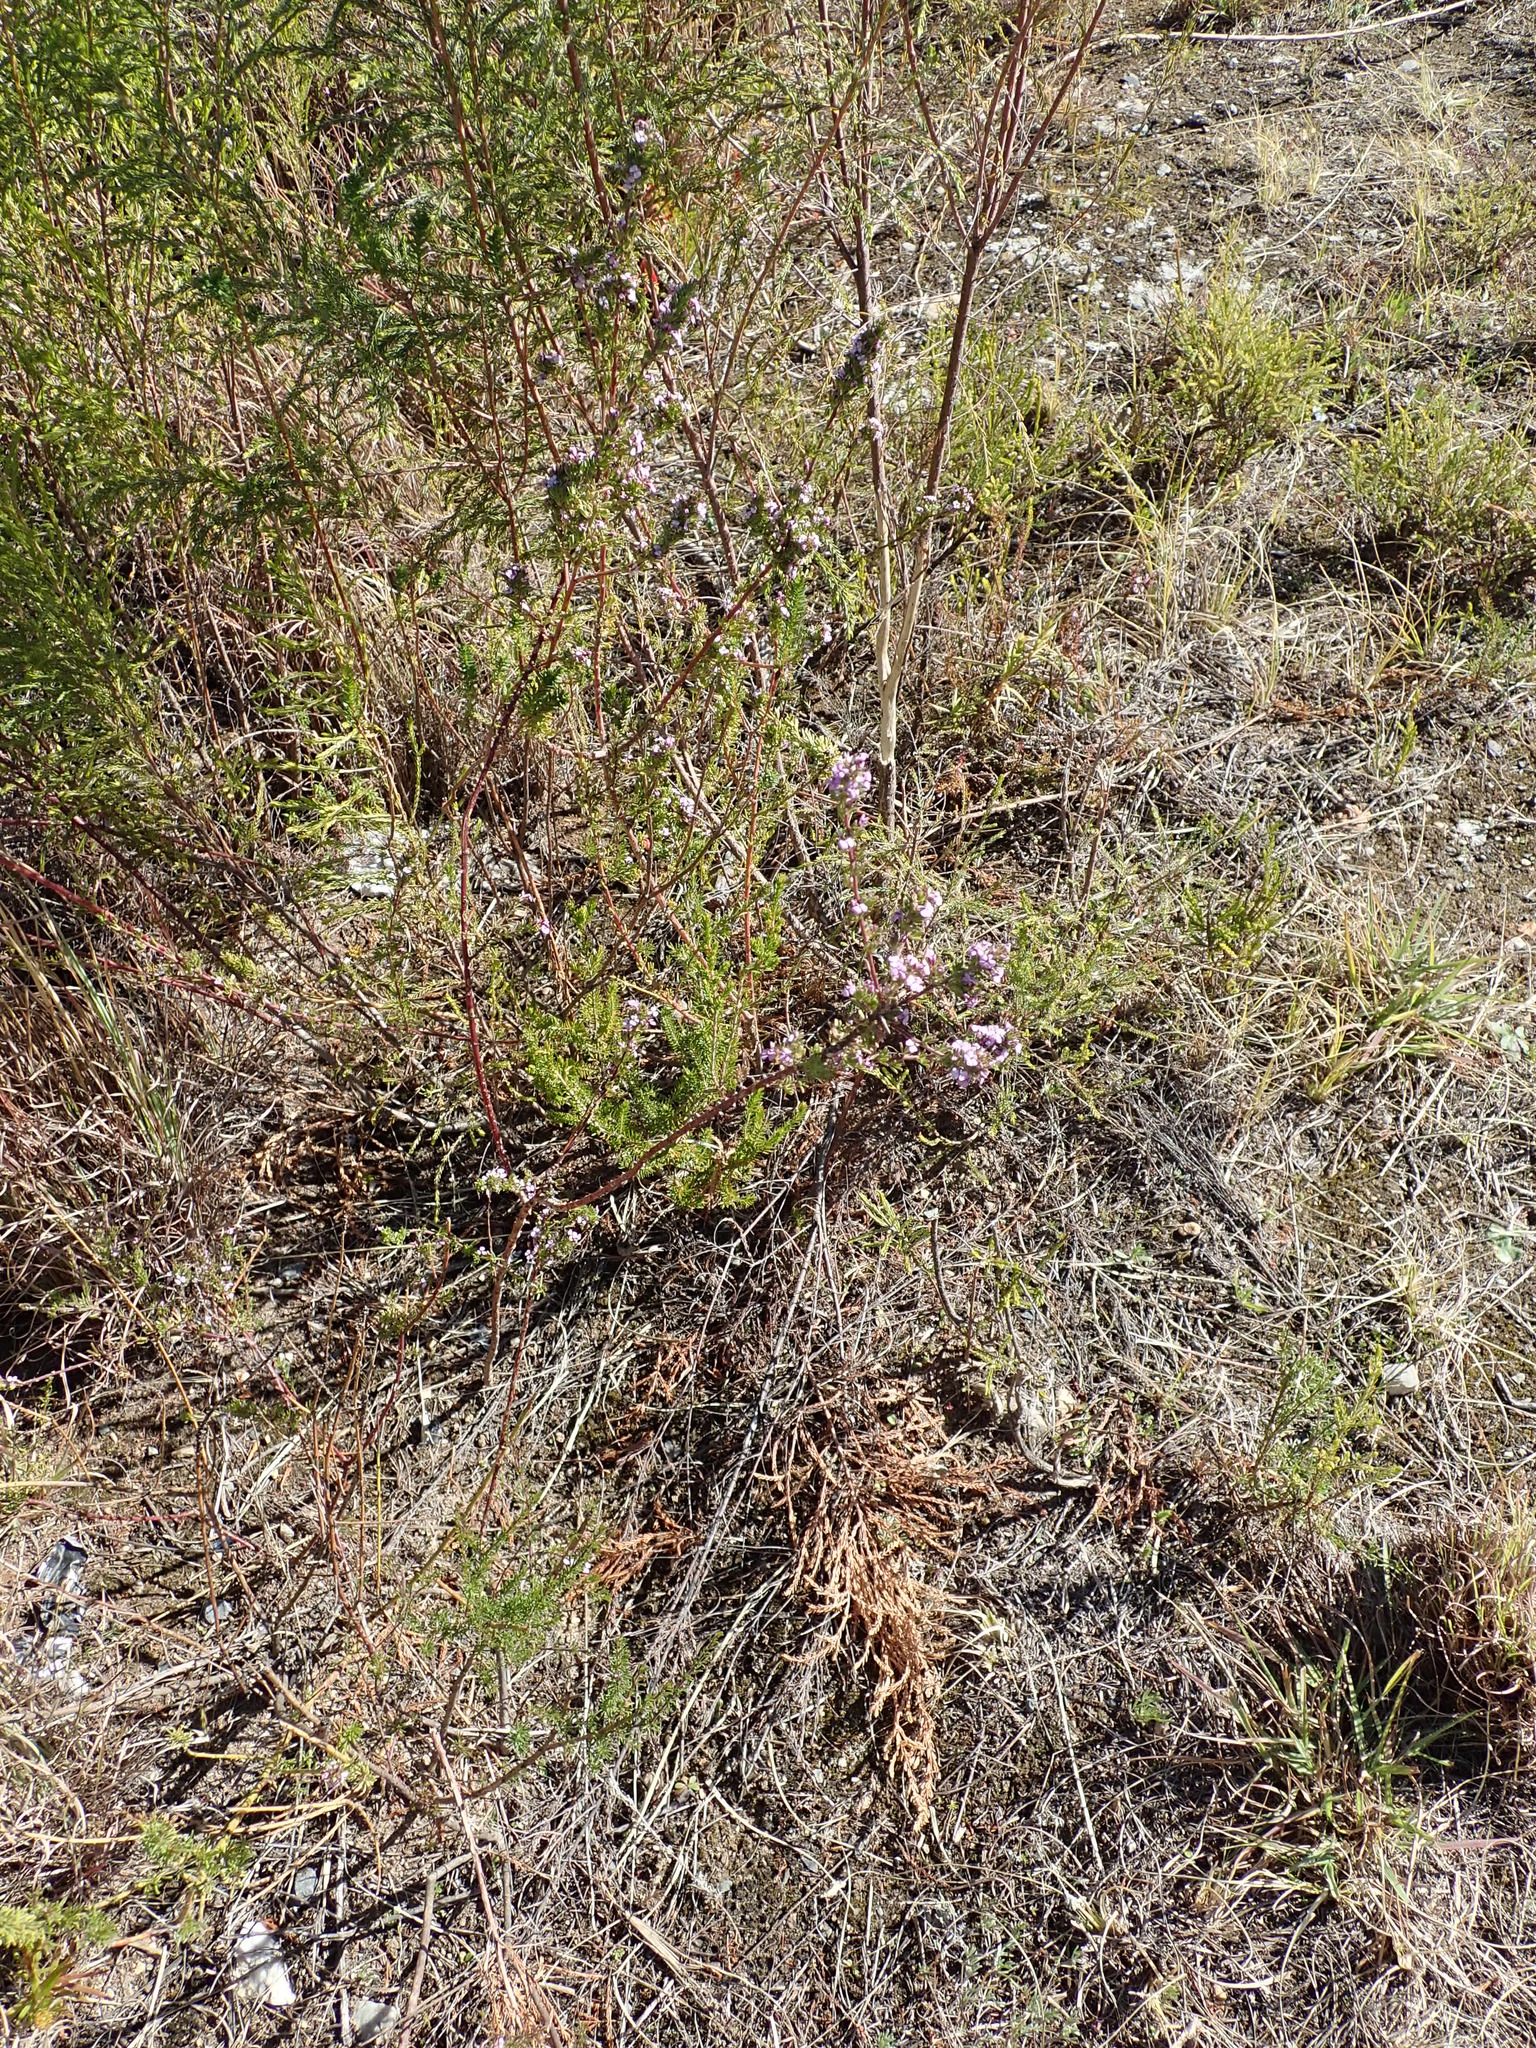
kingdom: Plantae
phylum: Tracheophyta
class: Magnoliopsida
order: Fabales
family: Polygalaceae
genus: Muraltia
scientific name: Muraltia rhamnoides
